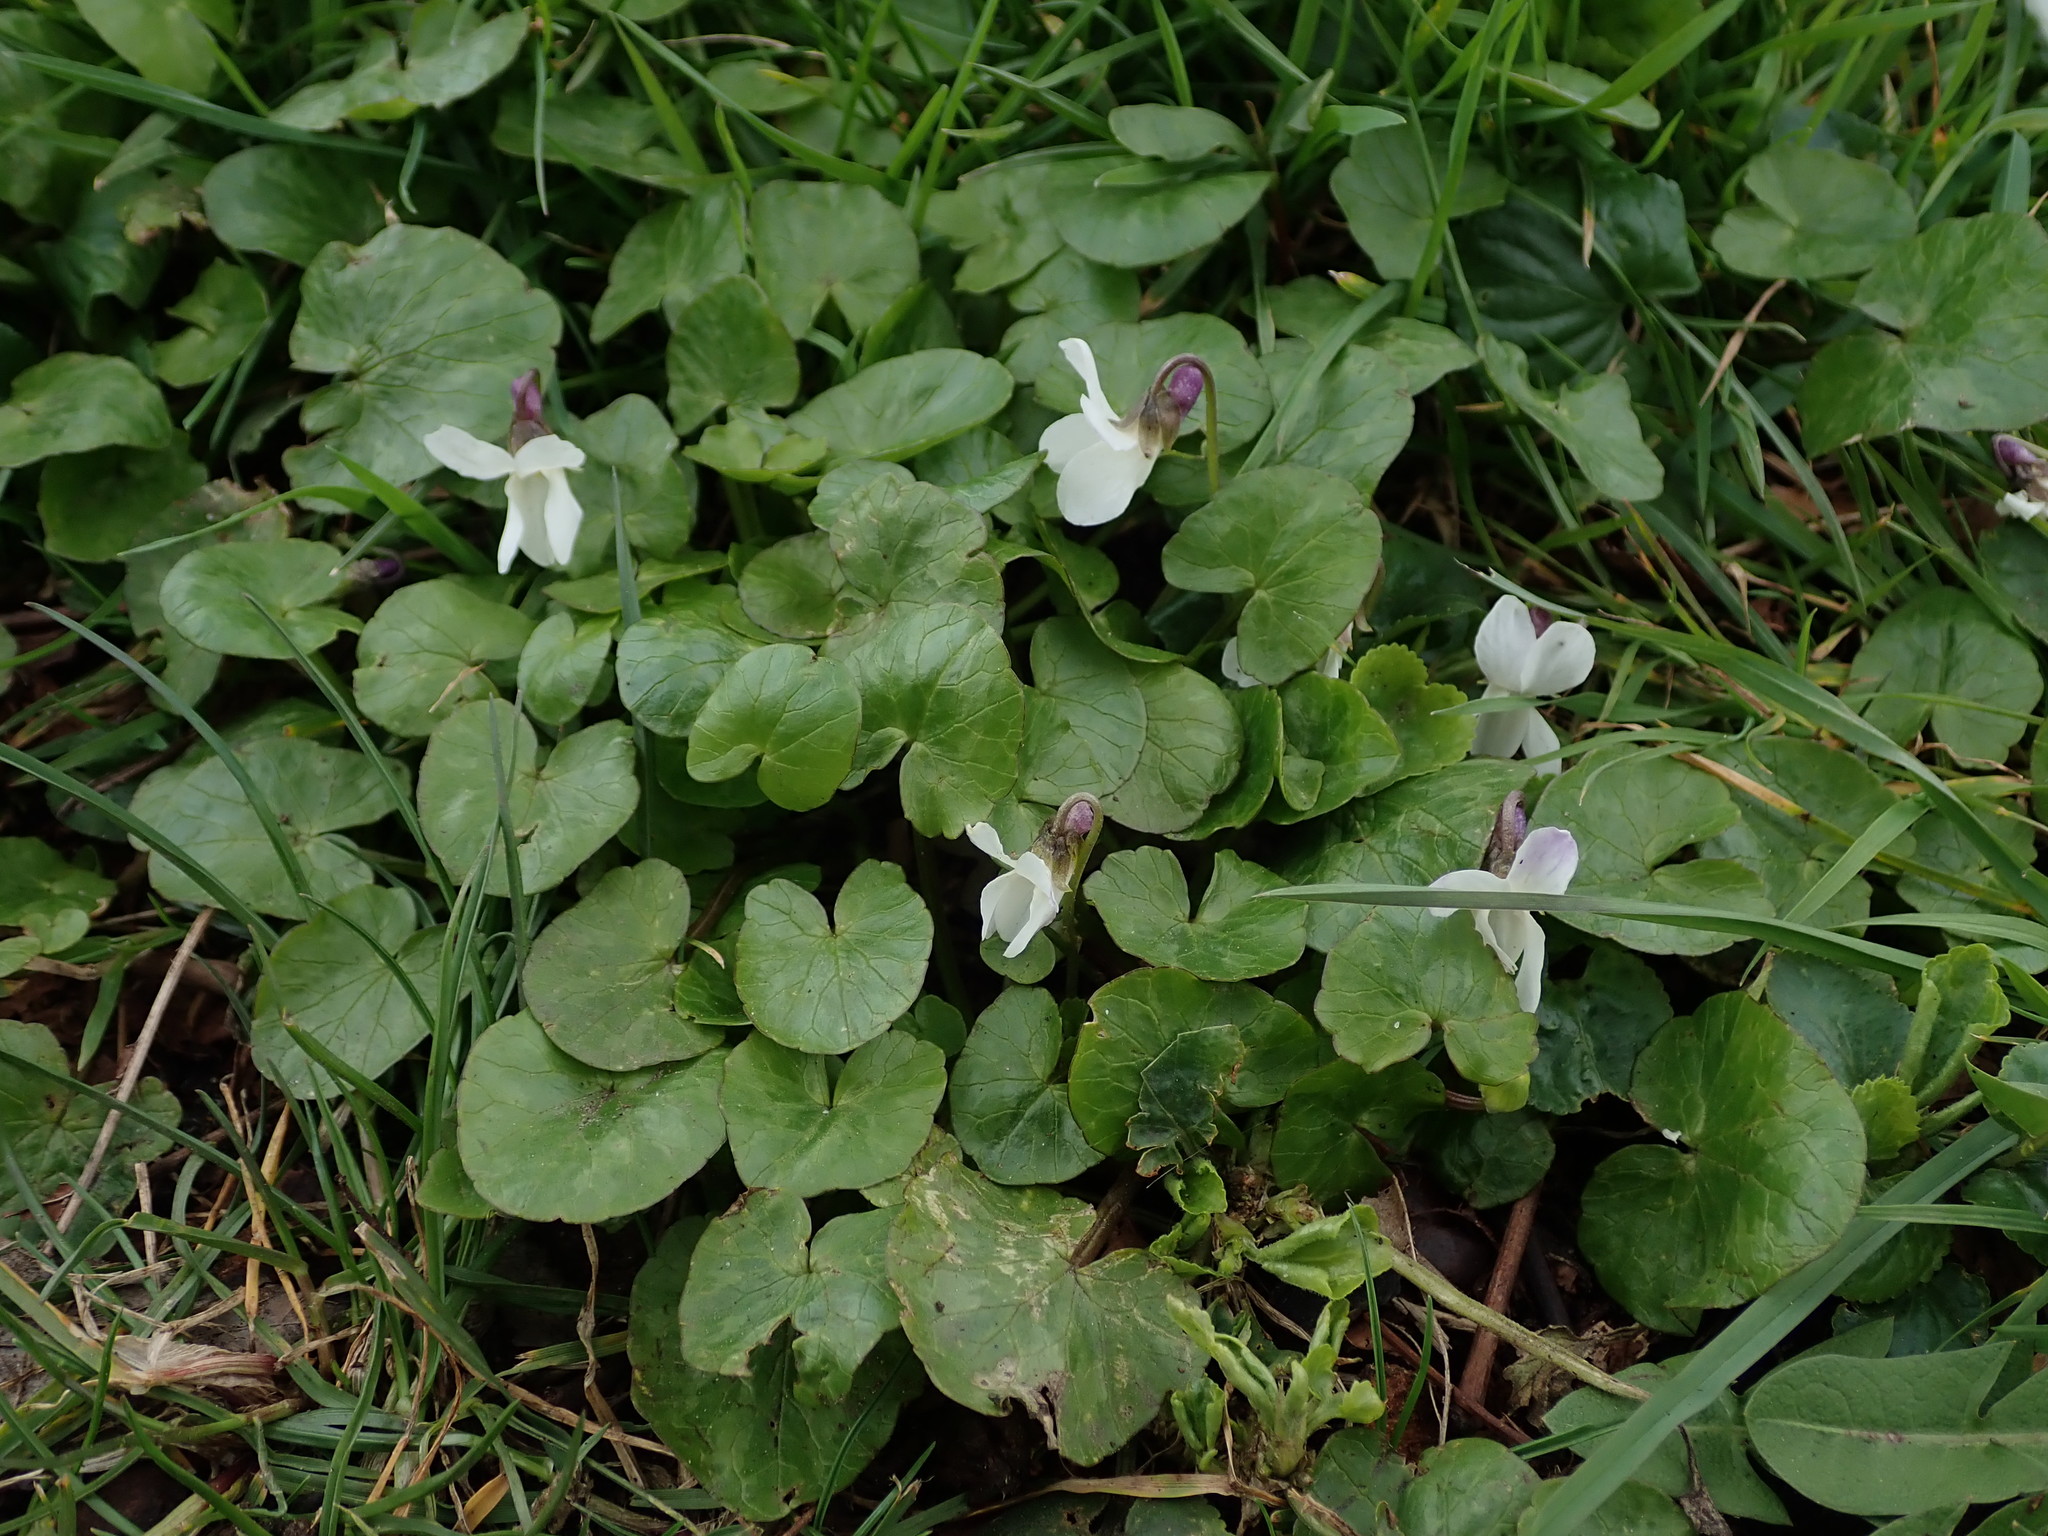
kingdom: Plantae
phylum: Tracheophyta
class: Magnoliopsida
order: Malpighiales
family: Violaceae
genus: Viola
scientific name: Viola odorata
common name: Sweet violet
